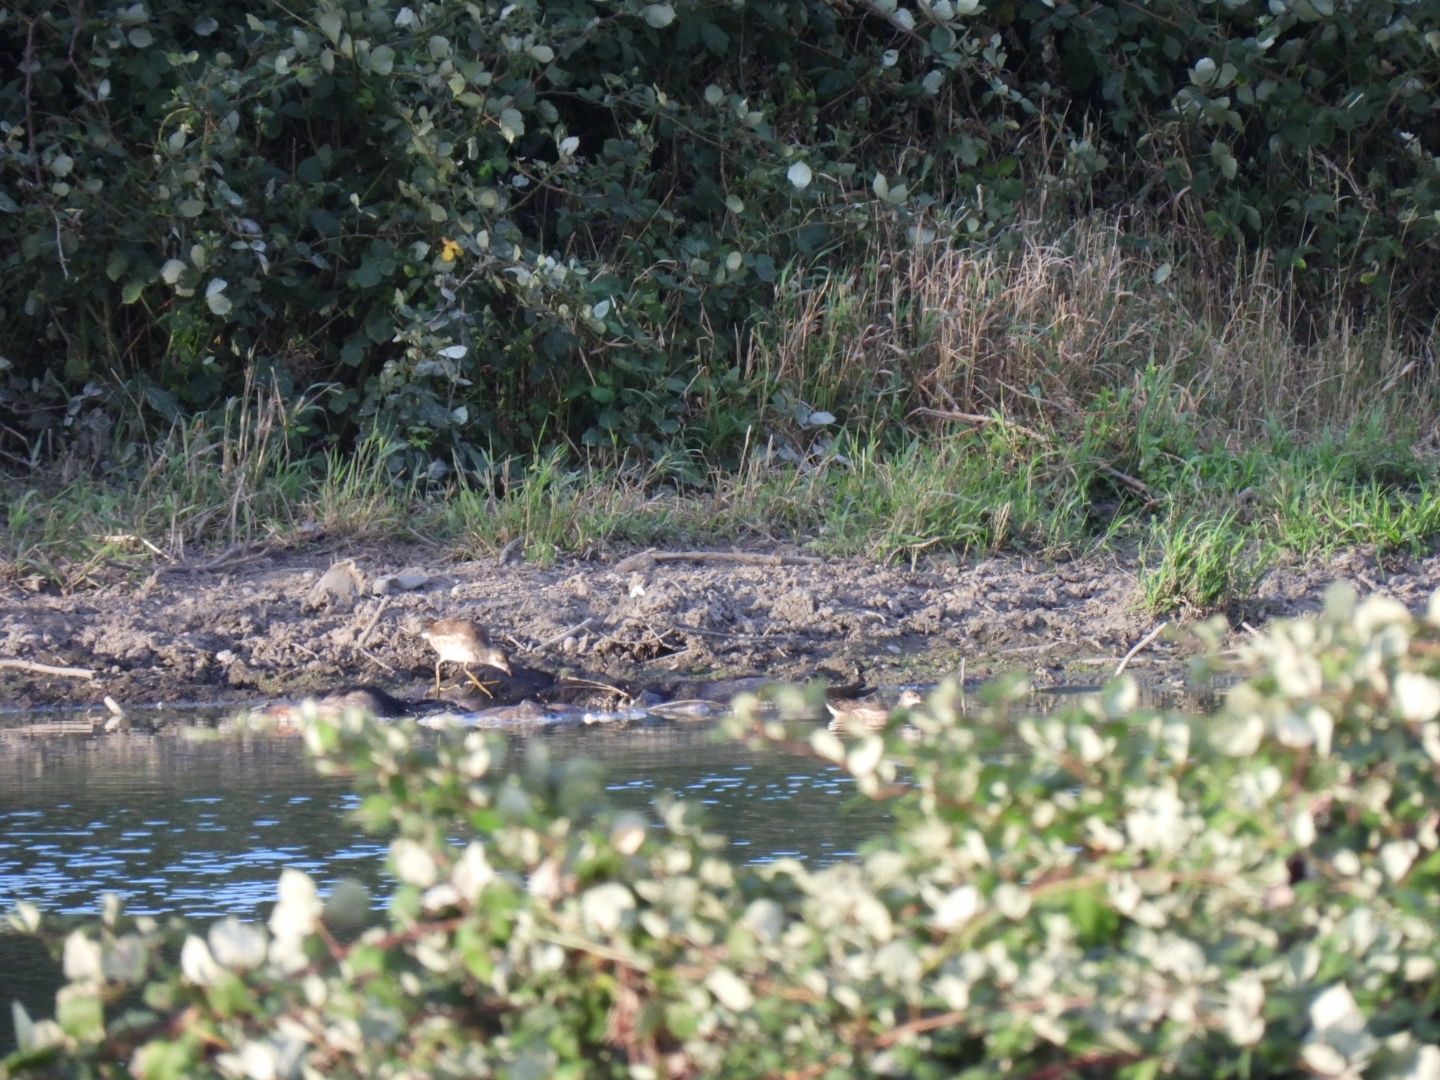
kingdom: Animalia
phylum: Chordata
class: Aves
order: Gruiformes
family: Rallidae
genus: Gallinula
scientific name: Gallinula chloropus
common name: Common moorhen
